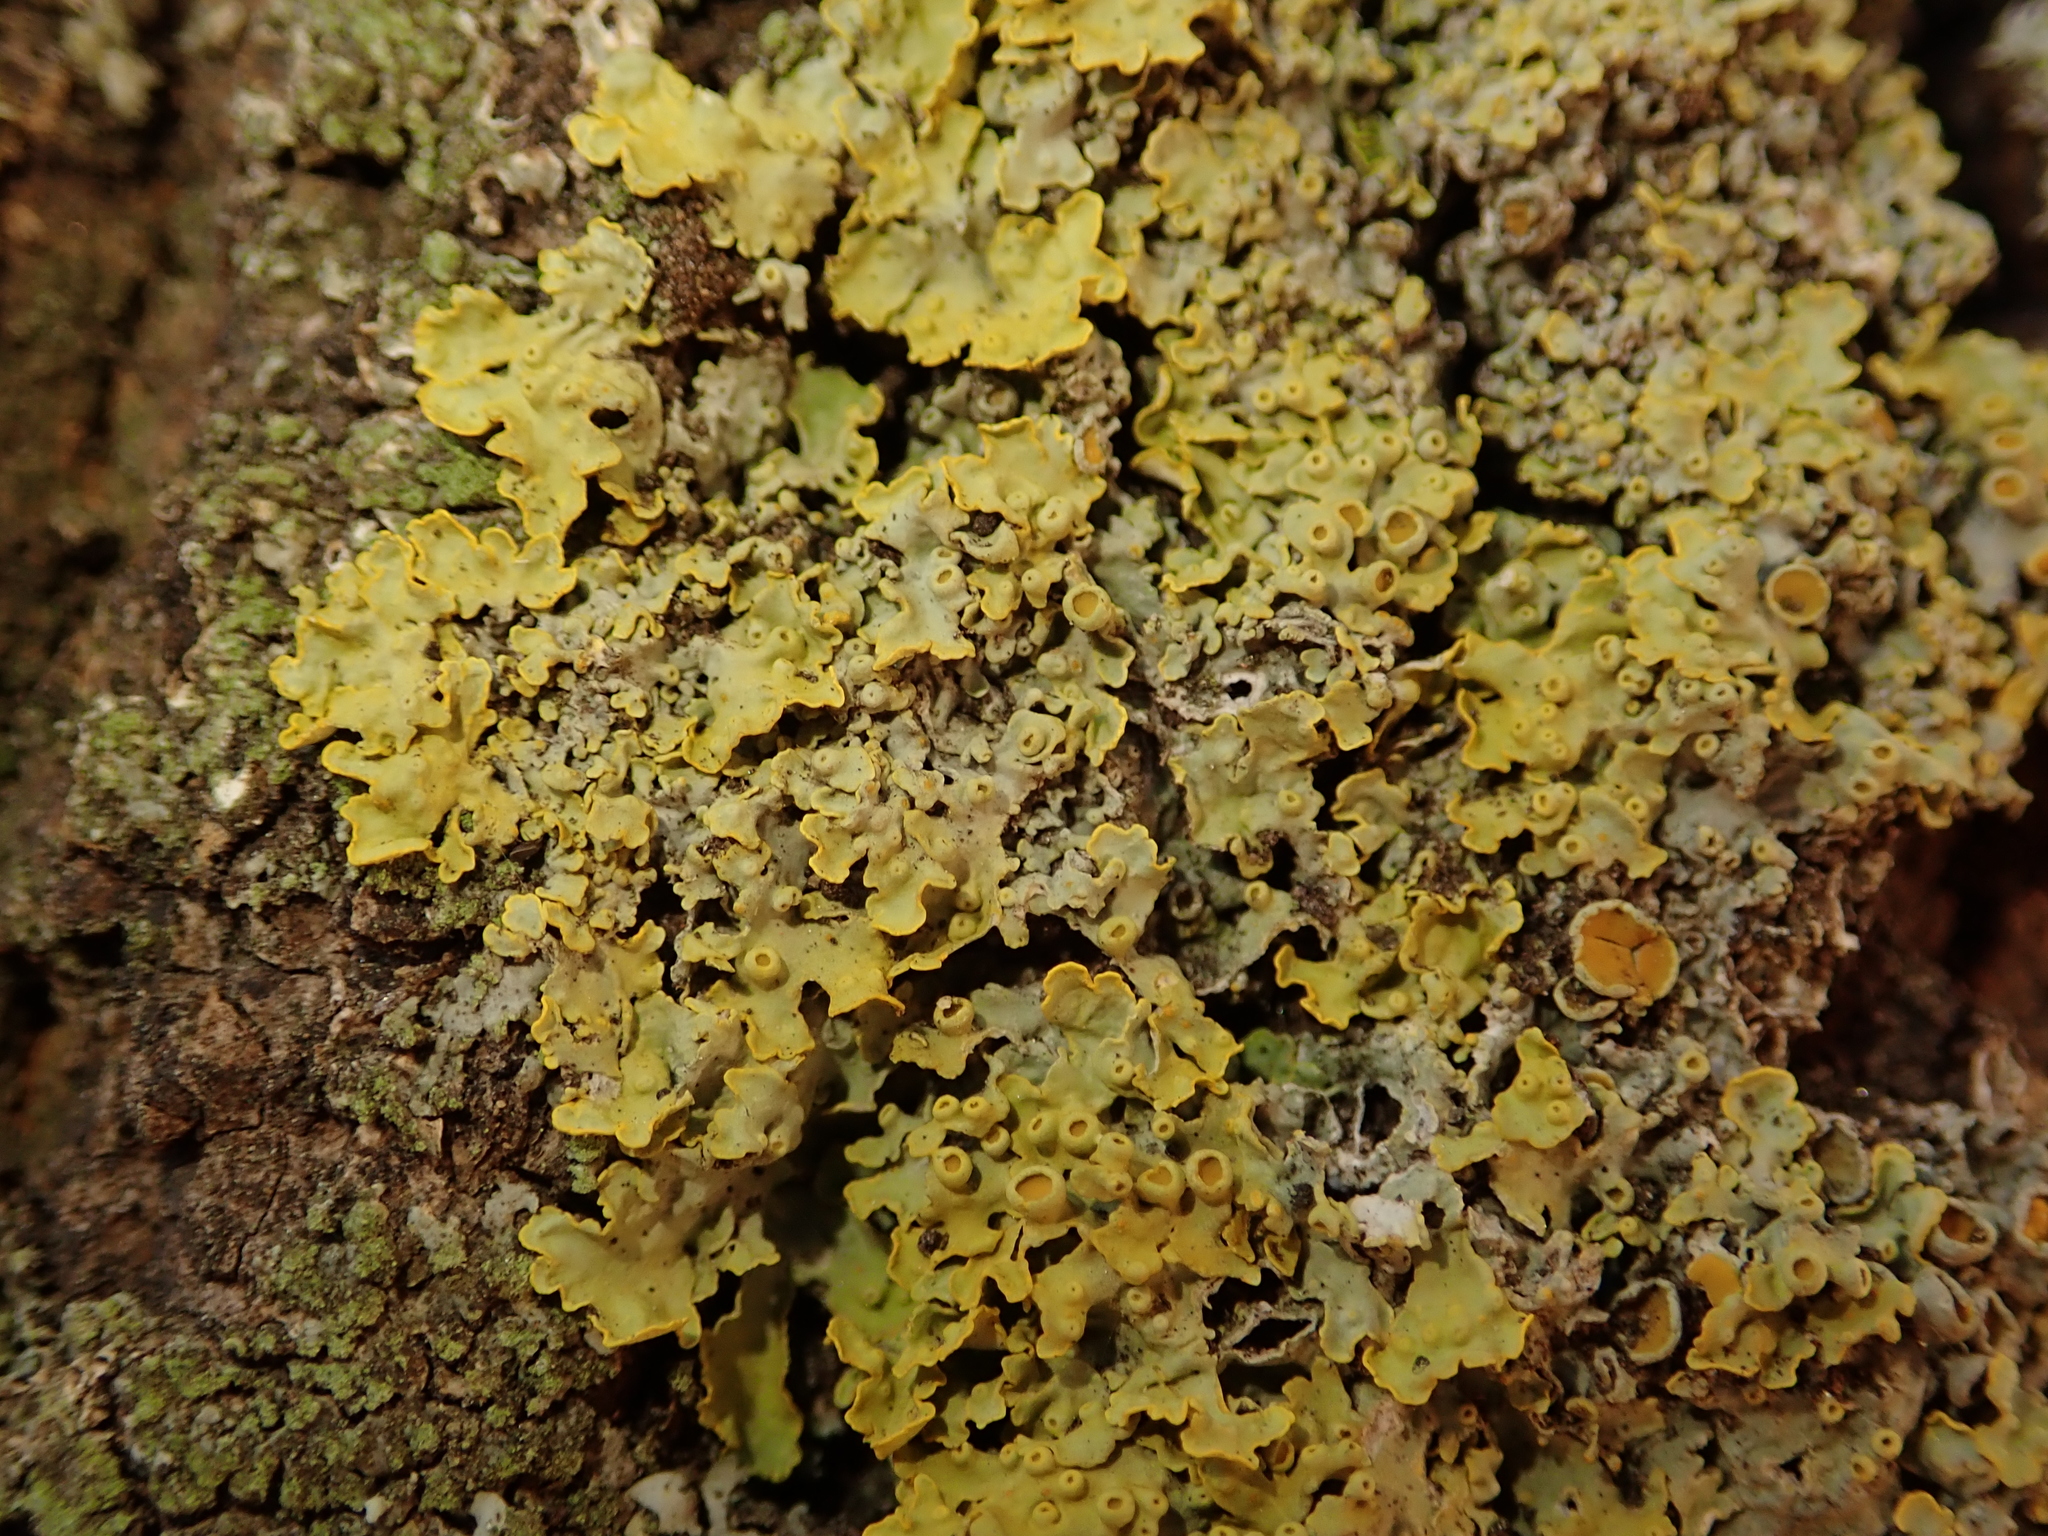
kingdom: Fungi
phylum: Ascomycota
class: Lecanoromycetes
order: Teloschistales
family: Teloschistaceae
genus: Xanthoria
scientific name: Xanthoria parietina
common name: Common orange lichen
